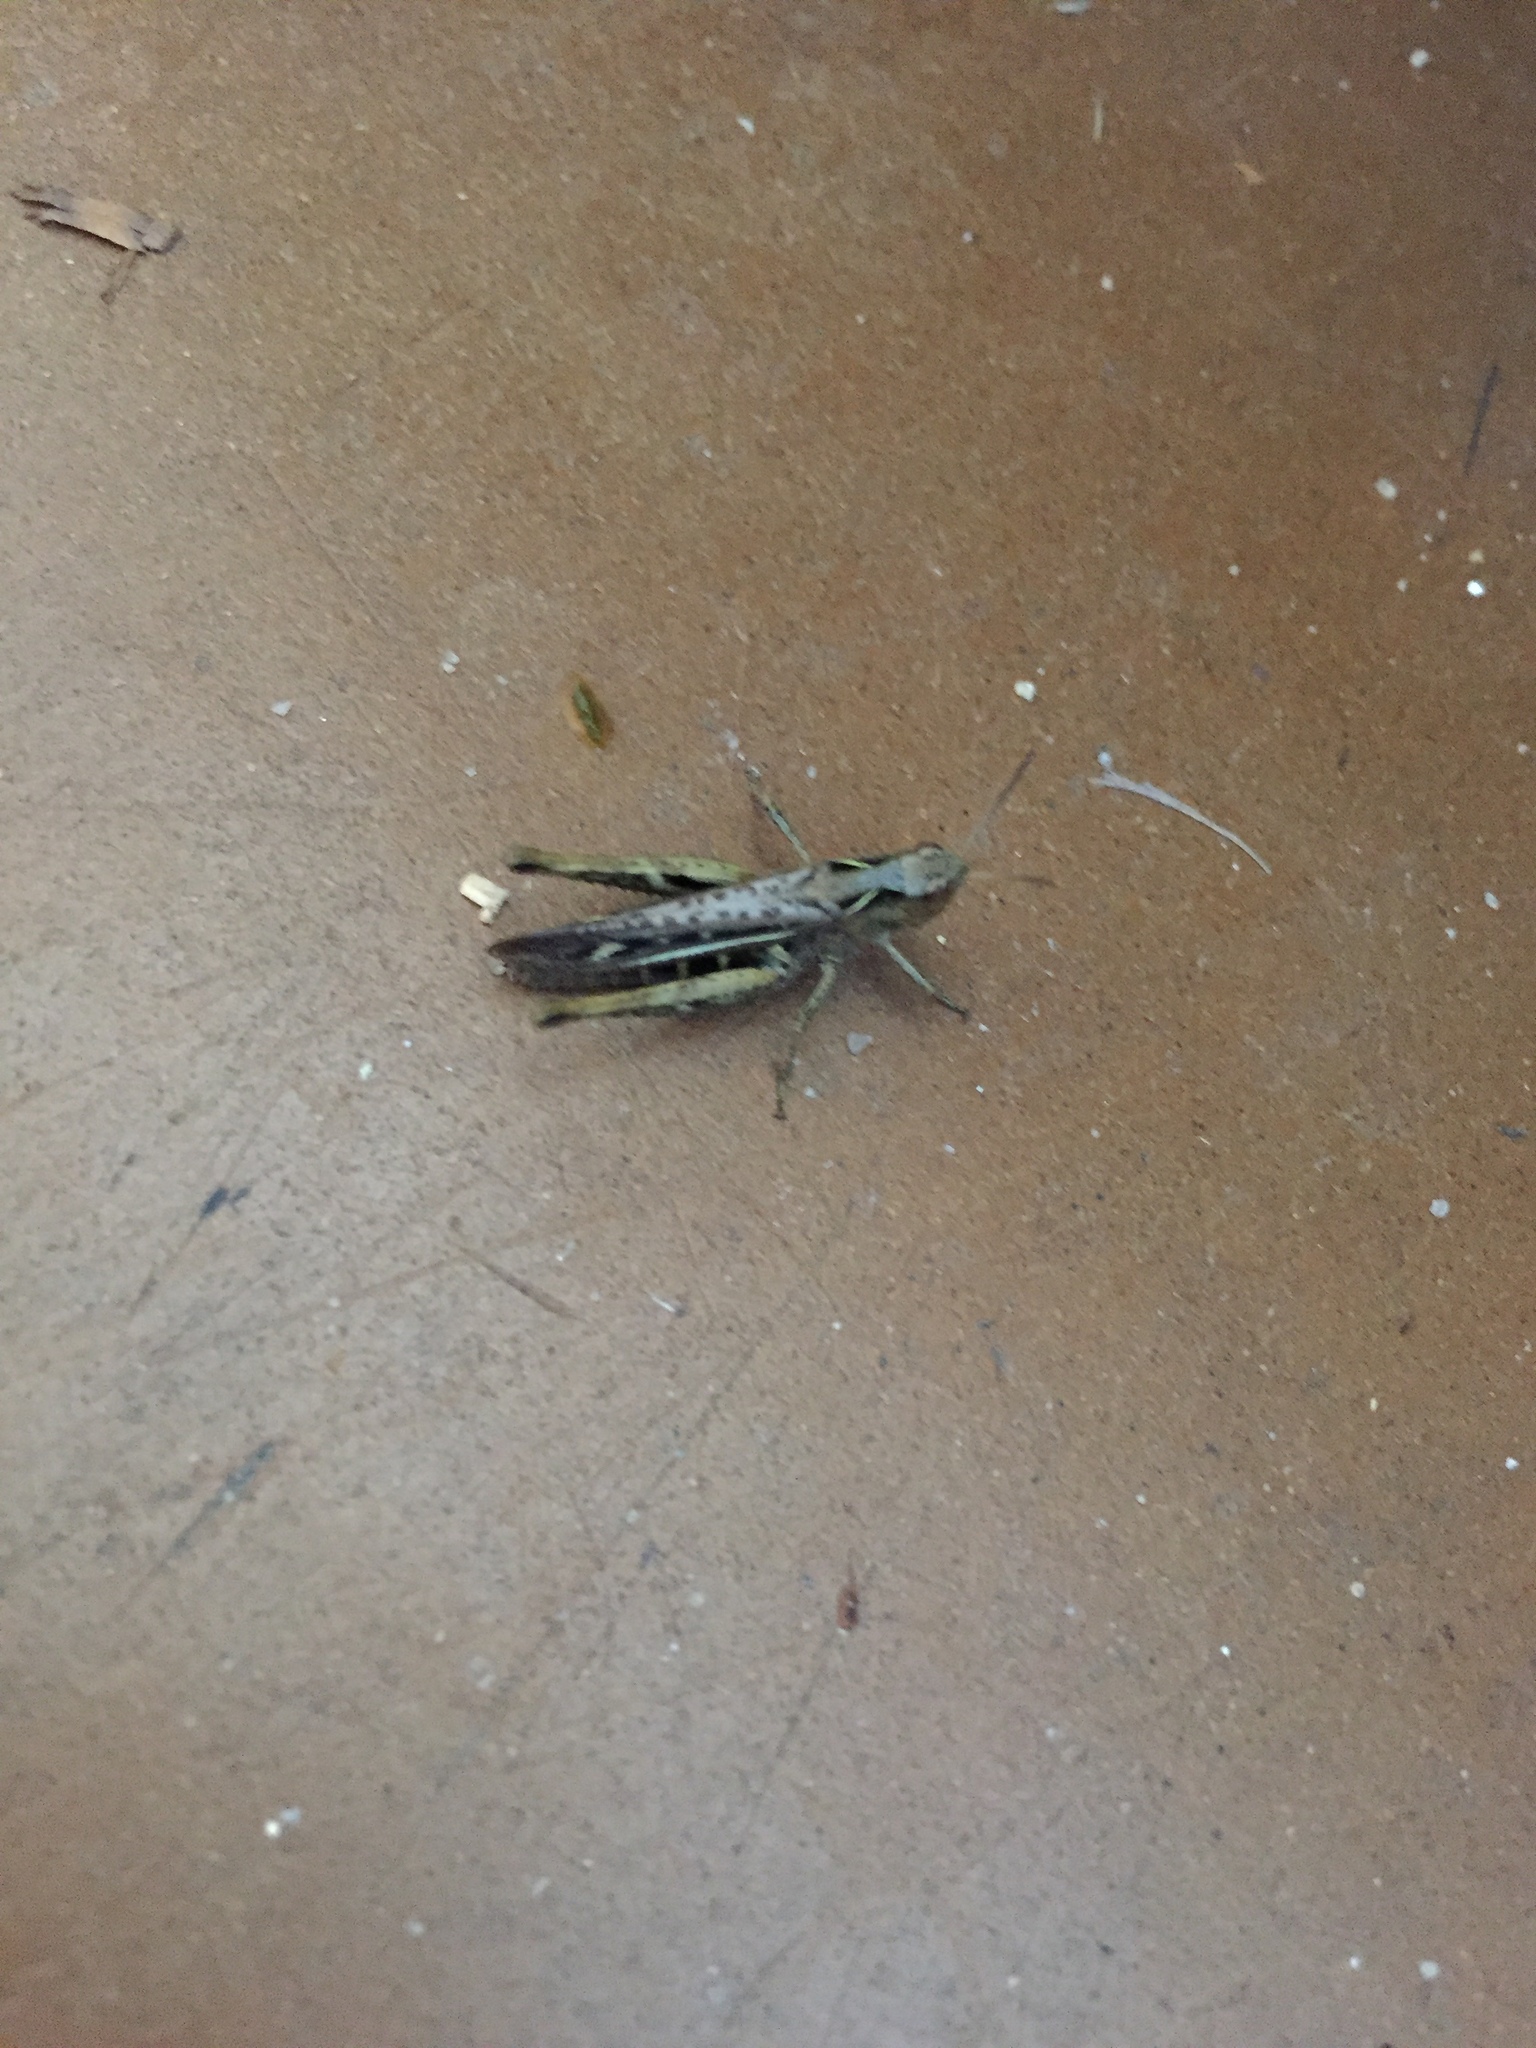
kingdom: Animalia
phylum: Arthropoda
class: Insecta
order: Orthoptera
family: Acrididae
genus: Chorthippus
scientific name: Chorthippus brunneus
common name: Field grasshopper
